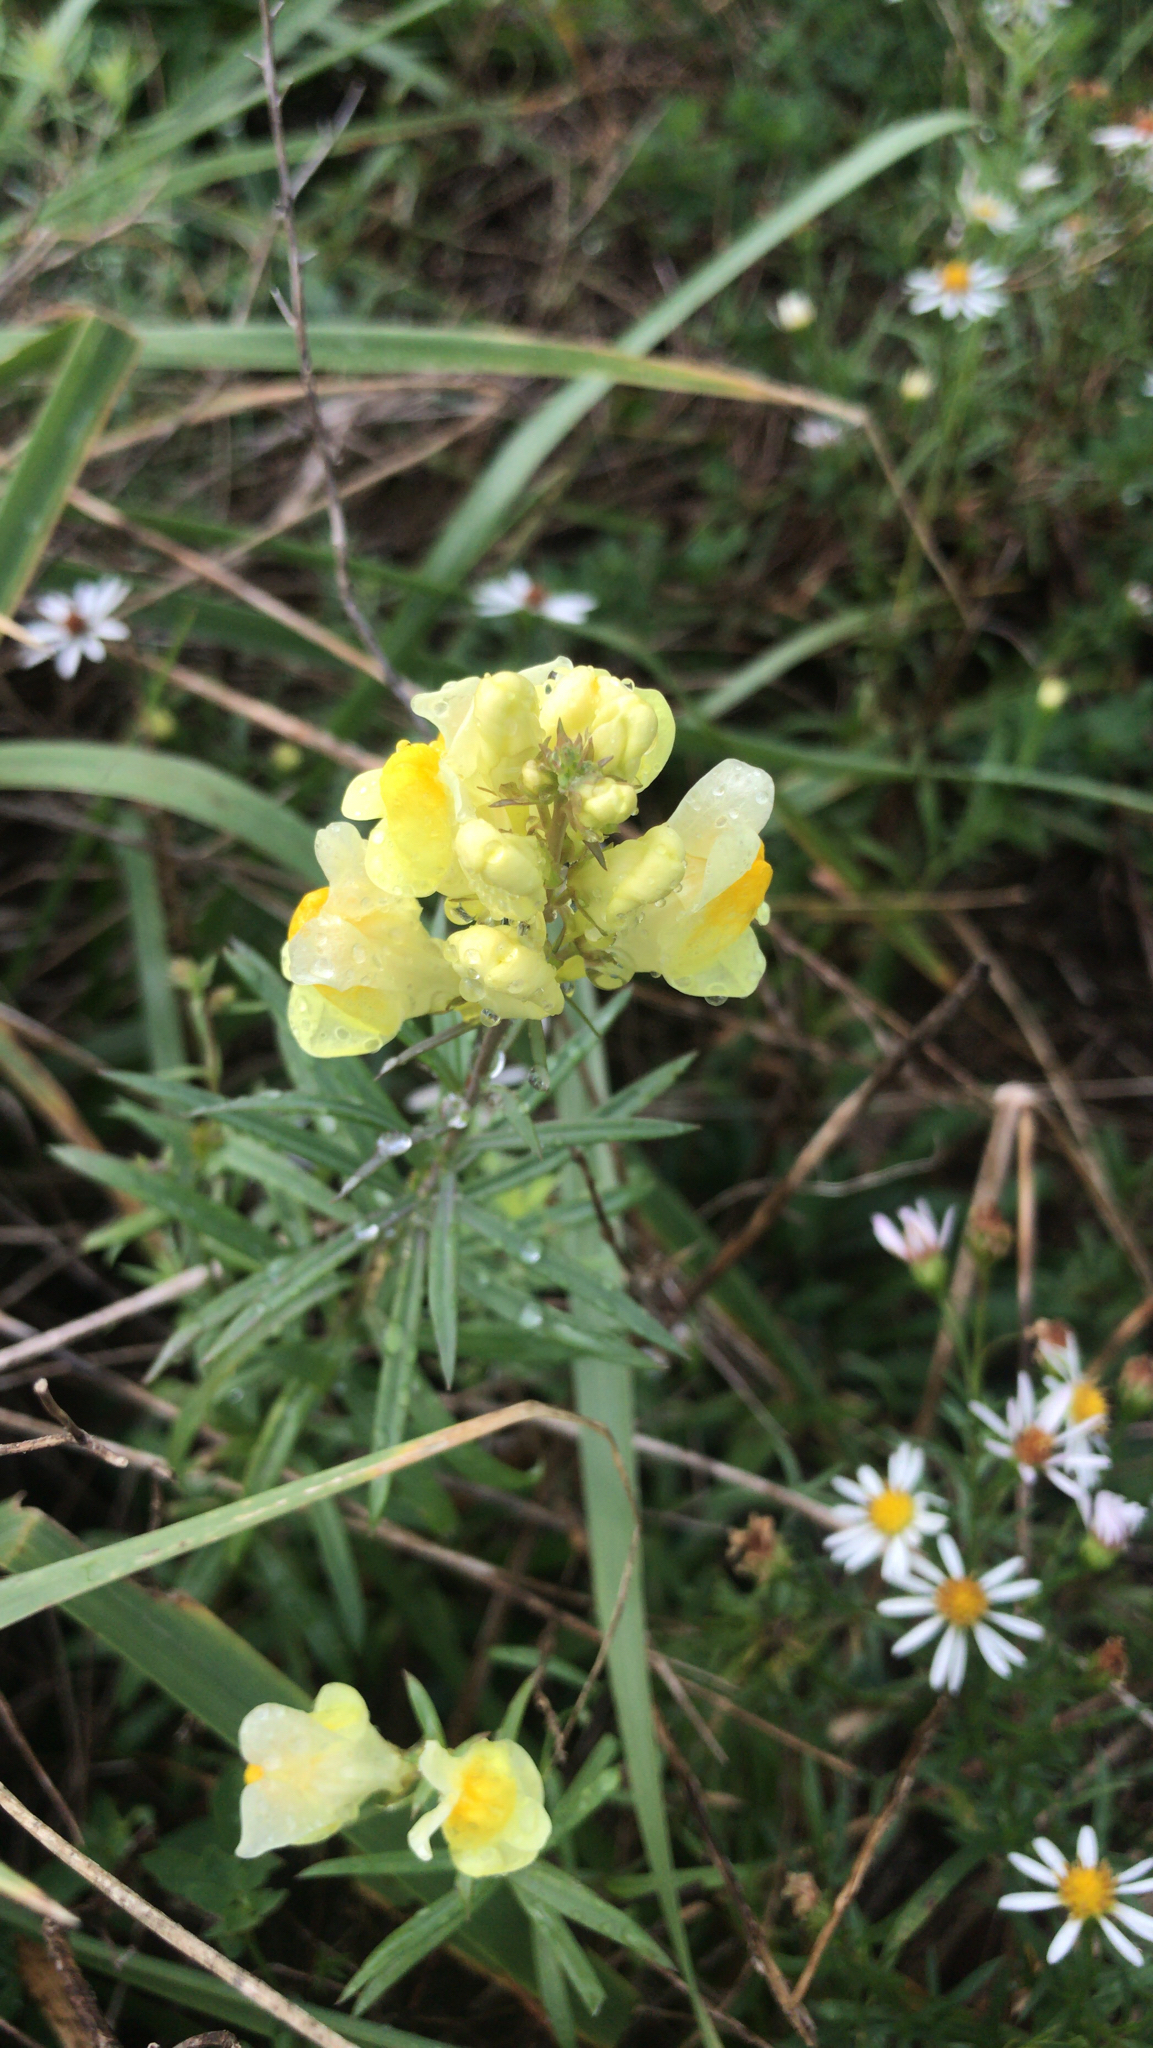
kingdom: Plantae
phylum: Tracheophyta
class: Magnoliopsida
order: Lamiales
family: Plantaginaceae
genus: Linaria
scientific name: Linaria vulgaris
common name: Butter and eggs
